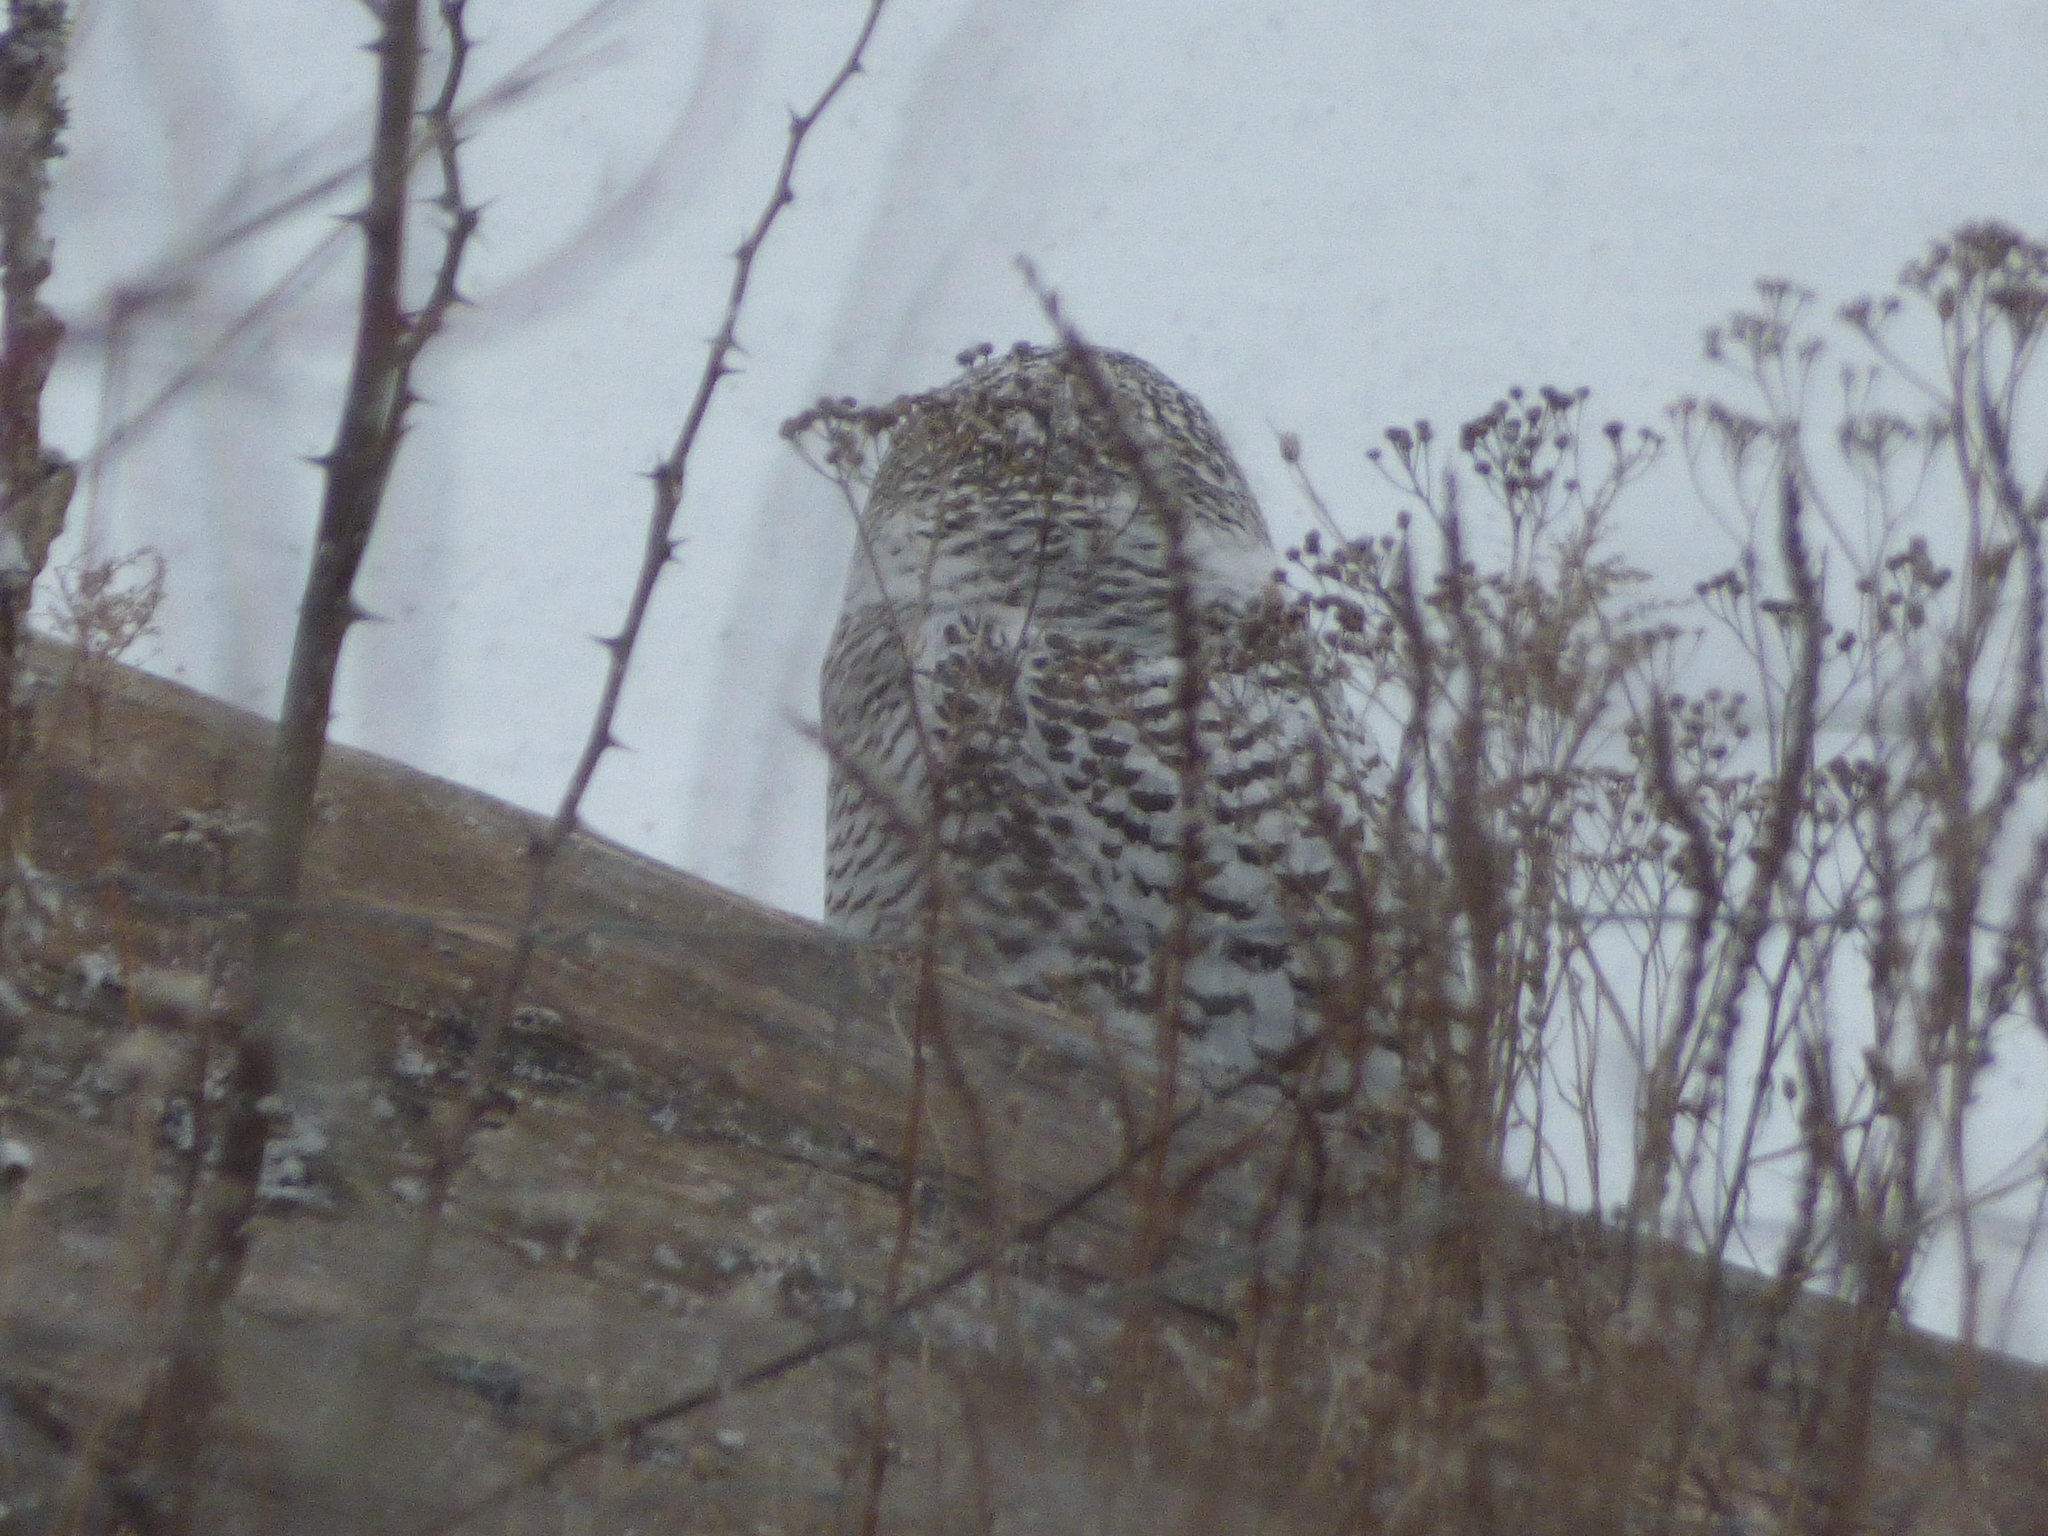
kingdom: Animalia
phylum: Chordata
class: Aves
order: Strigiformes
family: Strigidae
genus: Bubo
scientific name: Bubo scandiacus
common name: Snowy owl
